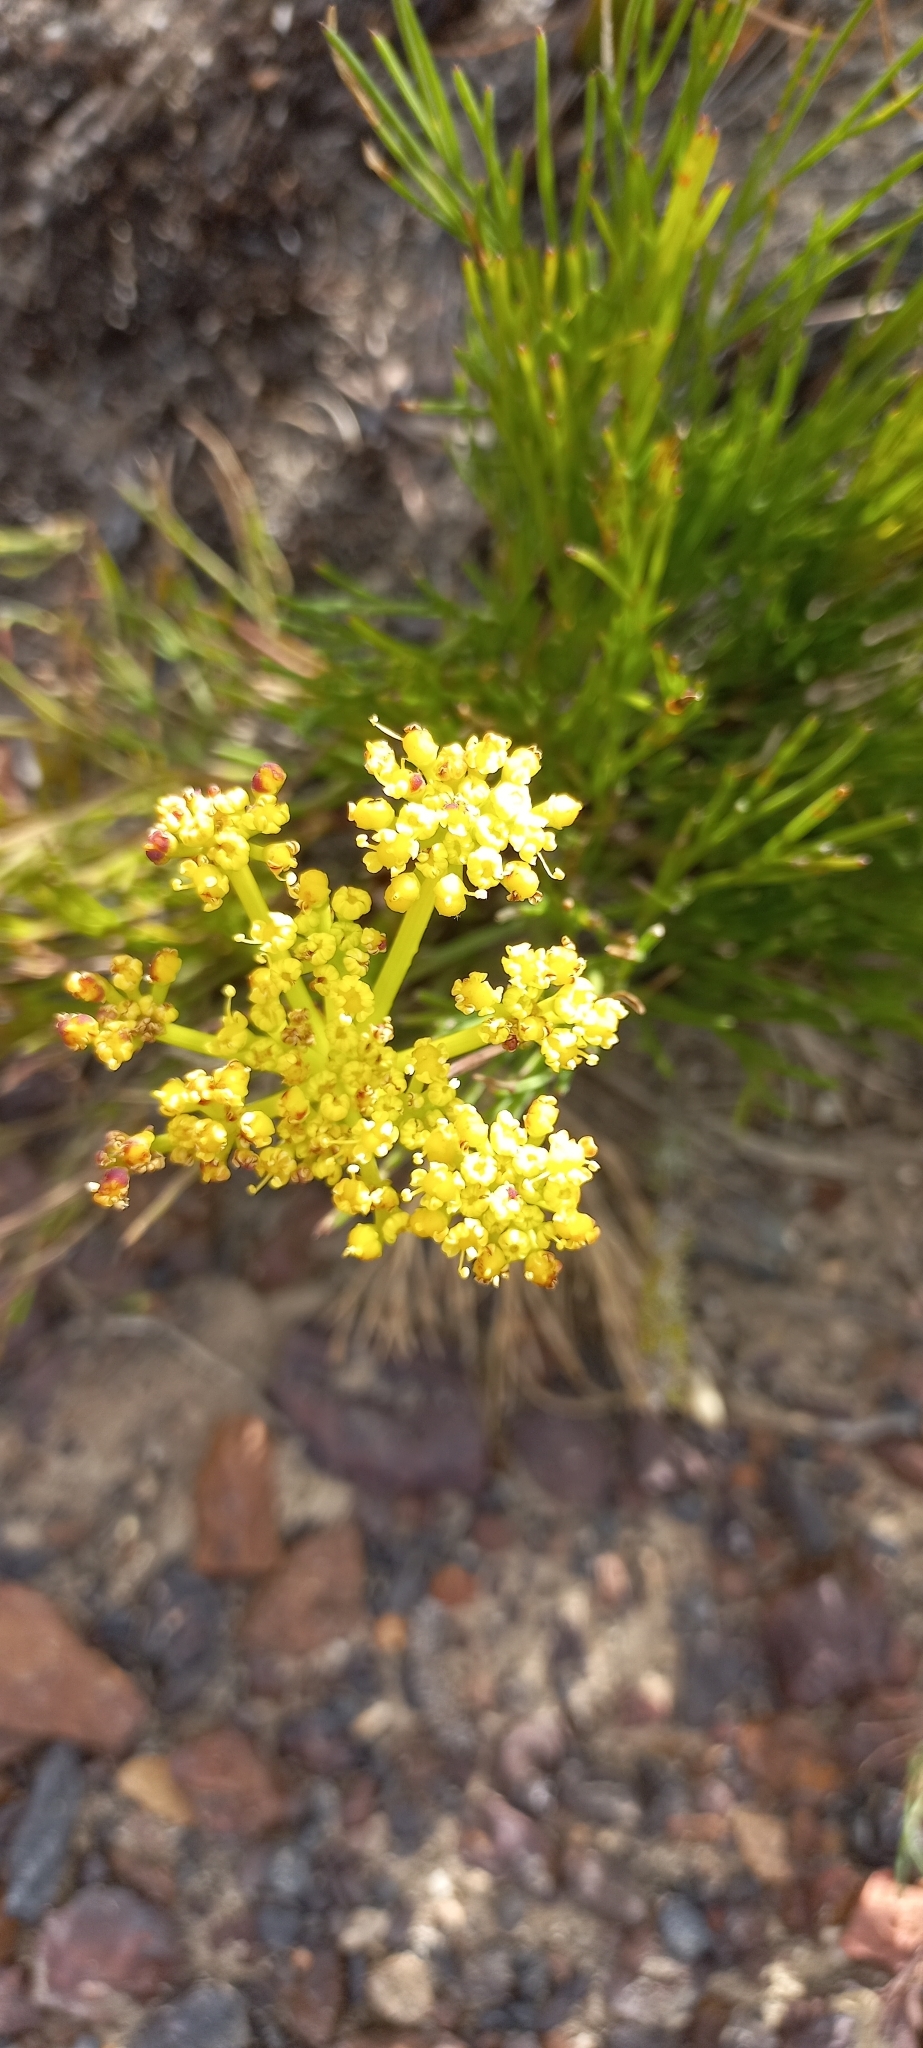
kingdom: Plantae
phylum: Tracheophyta
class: Magnoliopsida
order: Apiales
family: Apiaceae
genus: Nanobubon
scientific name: Nanobubon strictum
